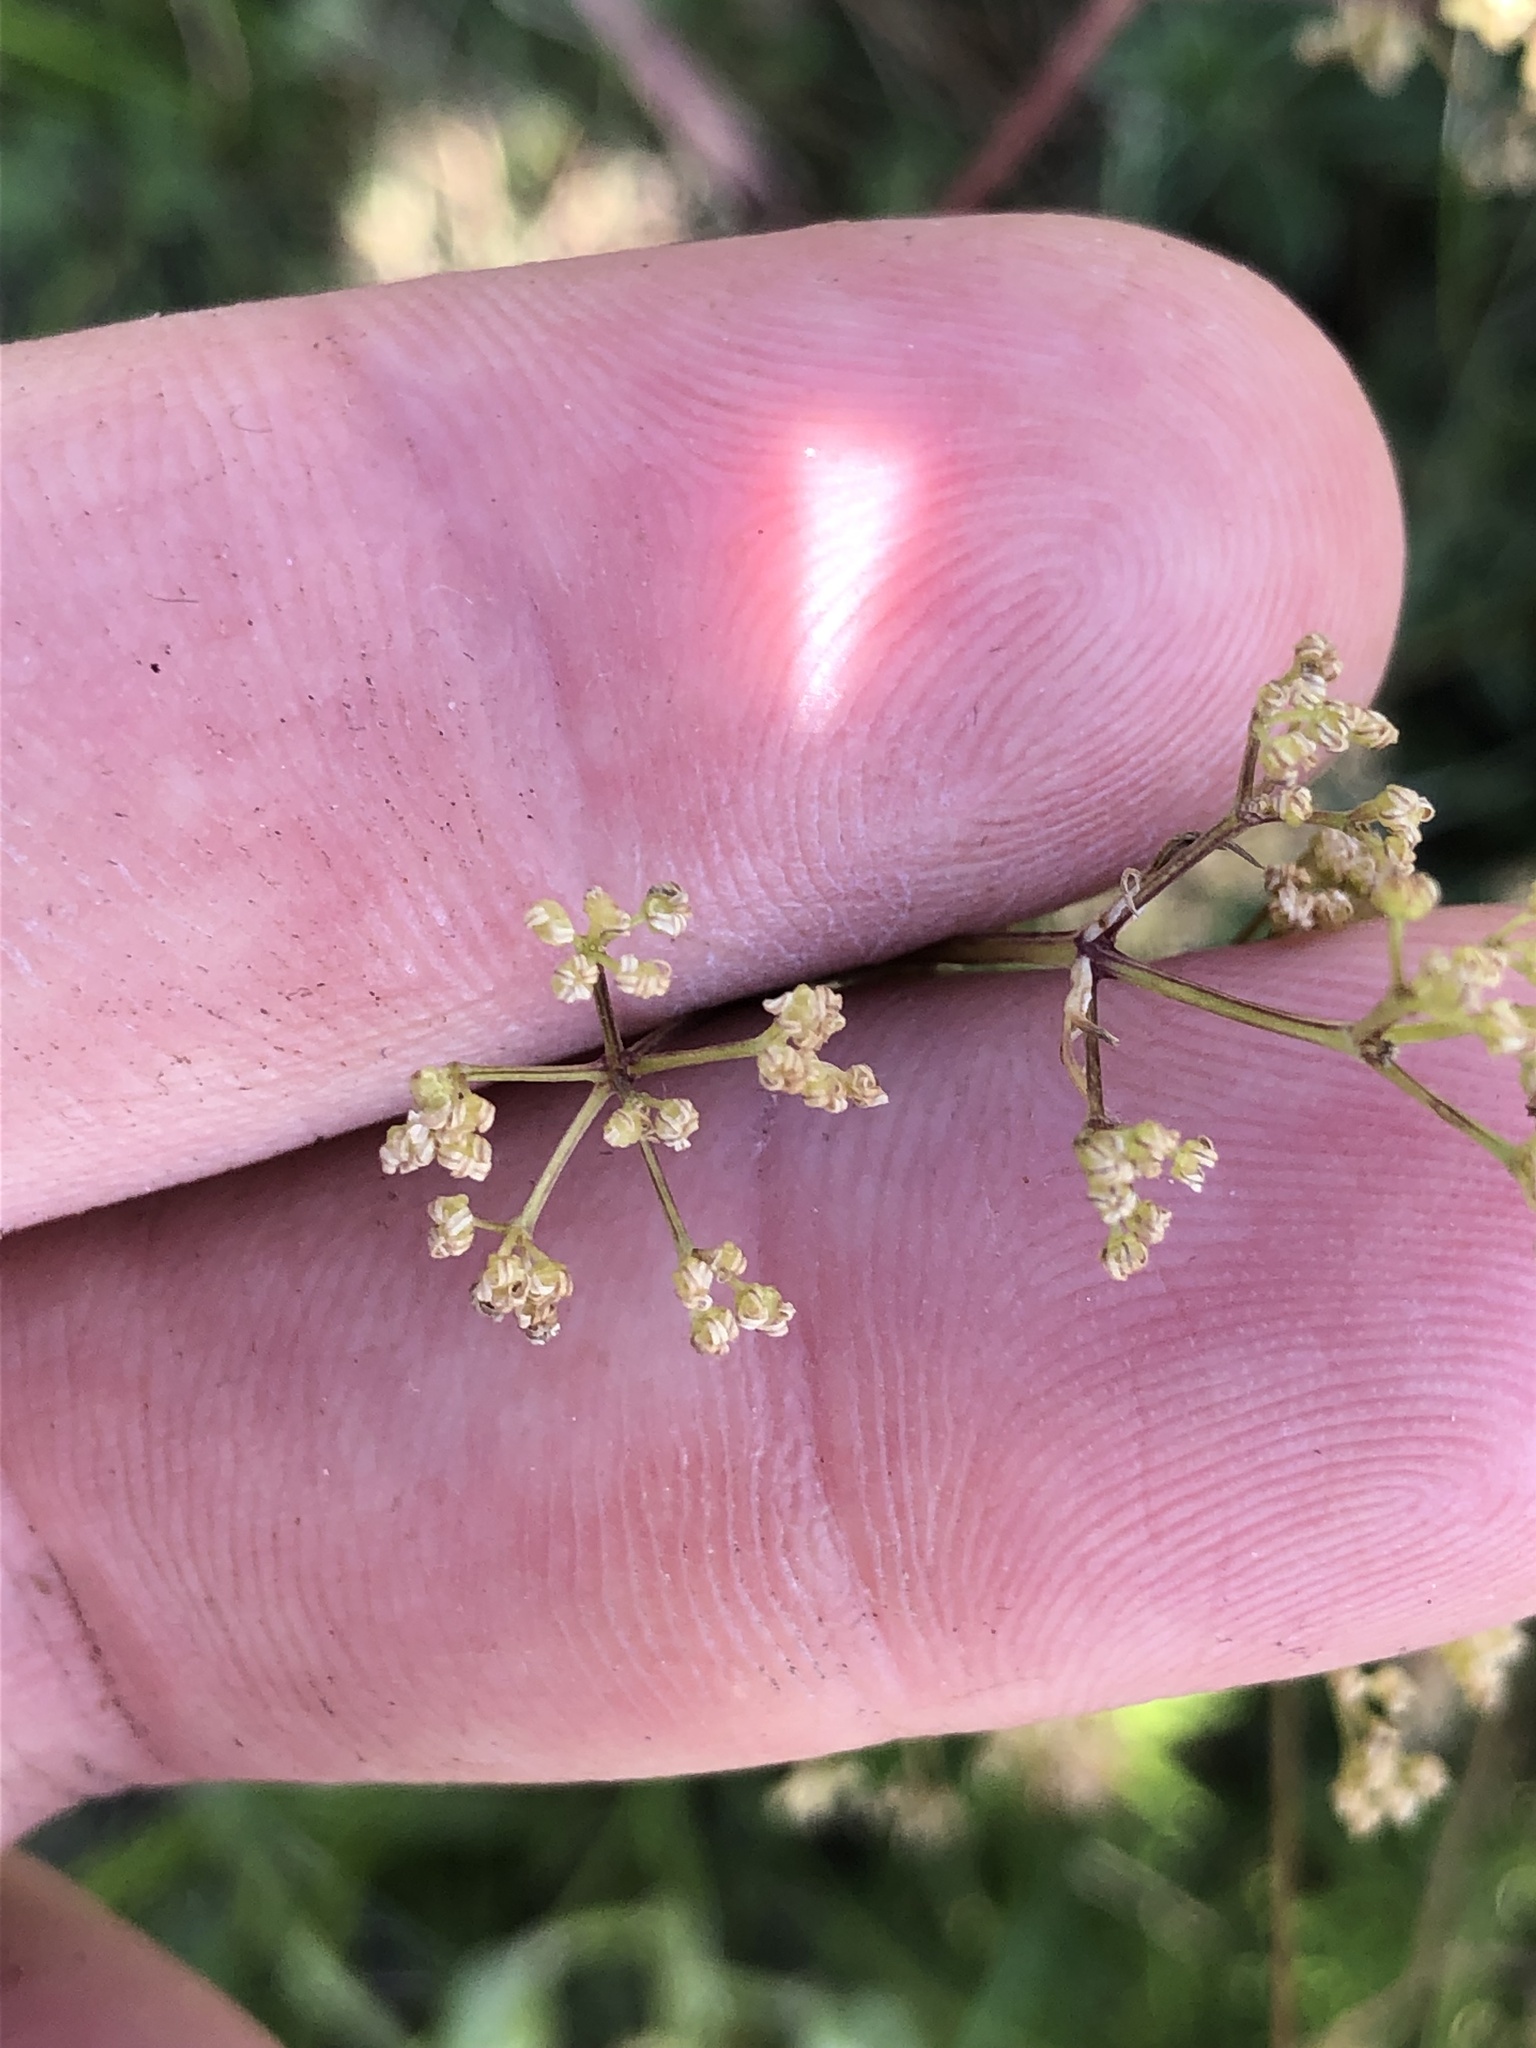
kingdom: Plantae
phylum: Tracheophyta
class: Magnoliopsida
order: Apiales
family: Apiaceae
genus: Trinia
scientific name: Trinia glauca
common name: Honewort
